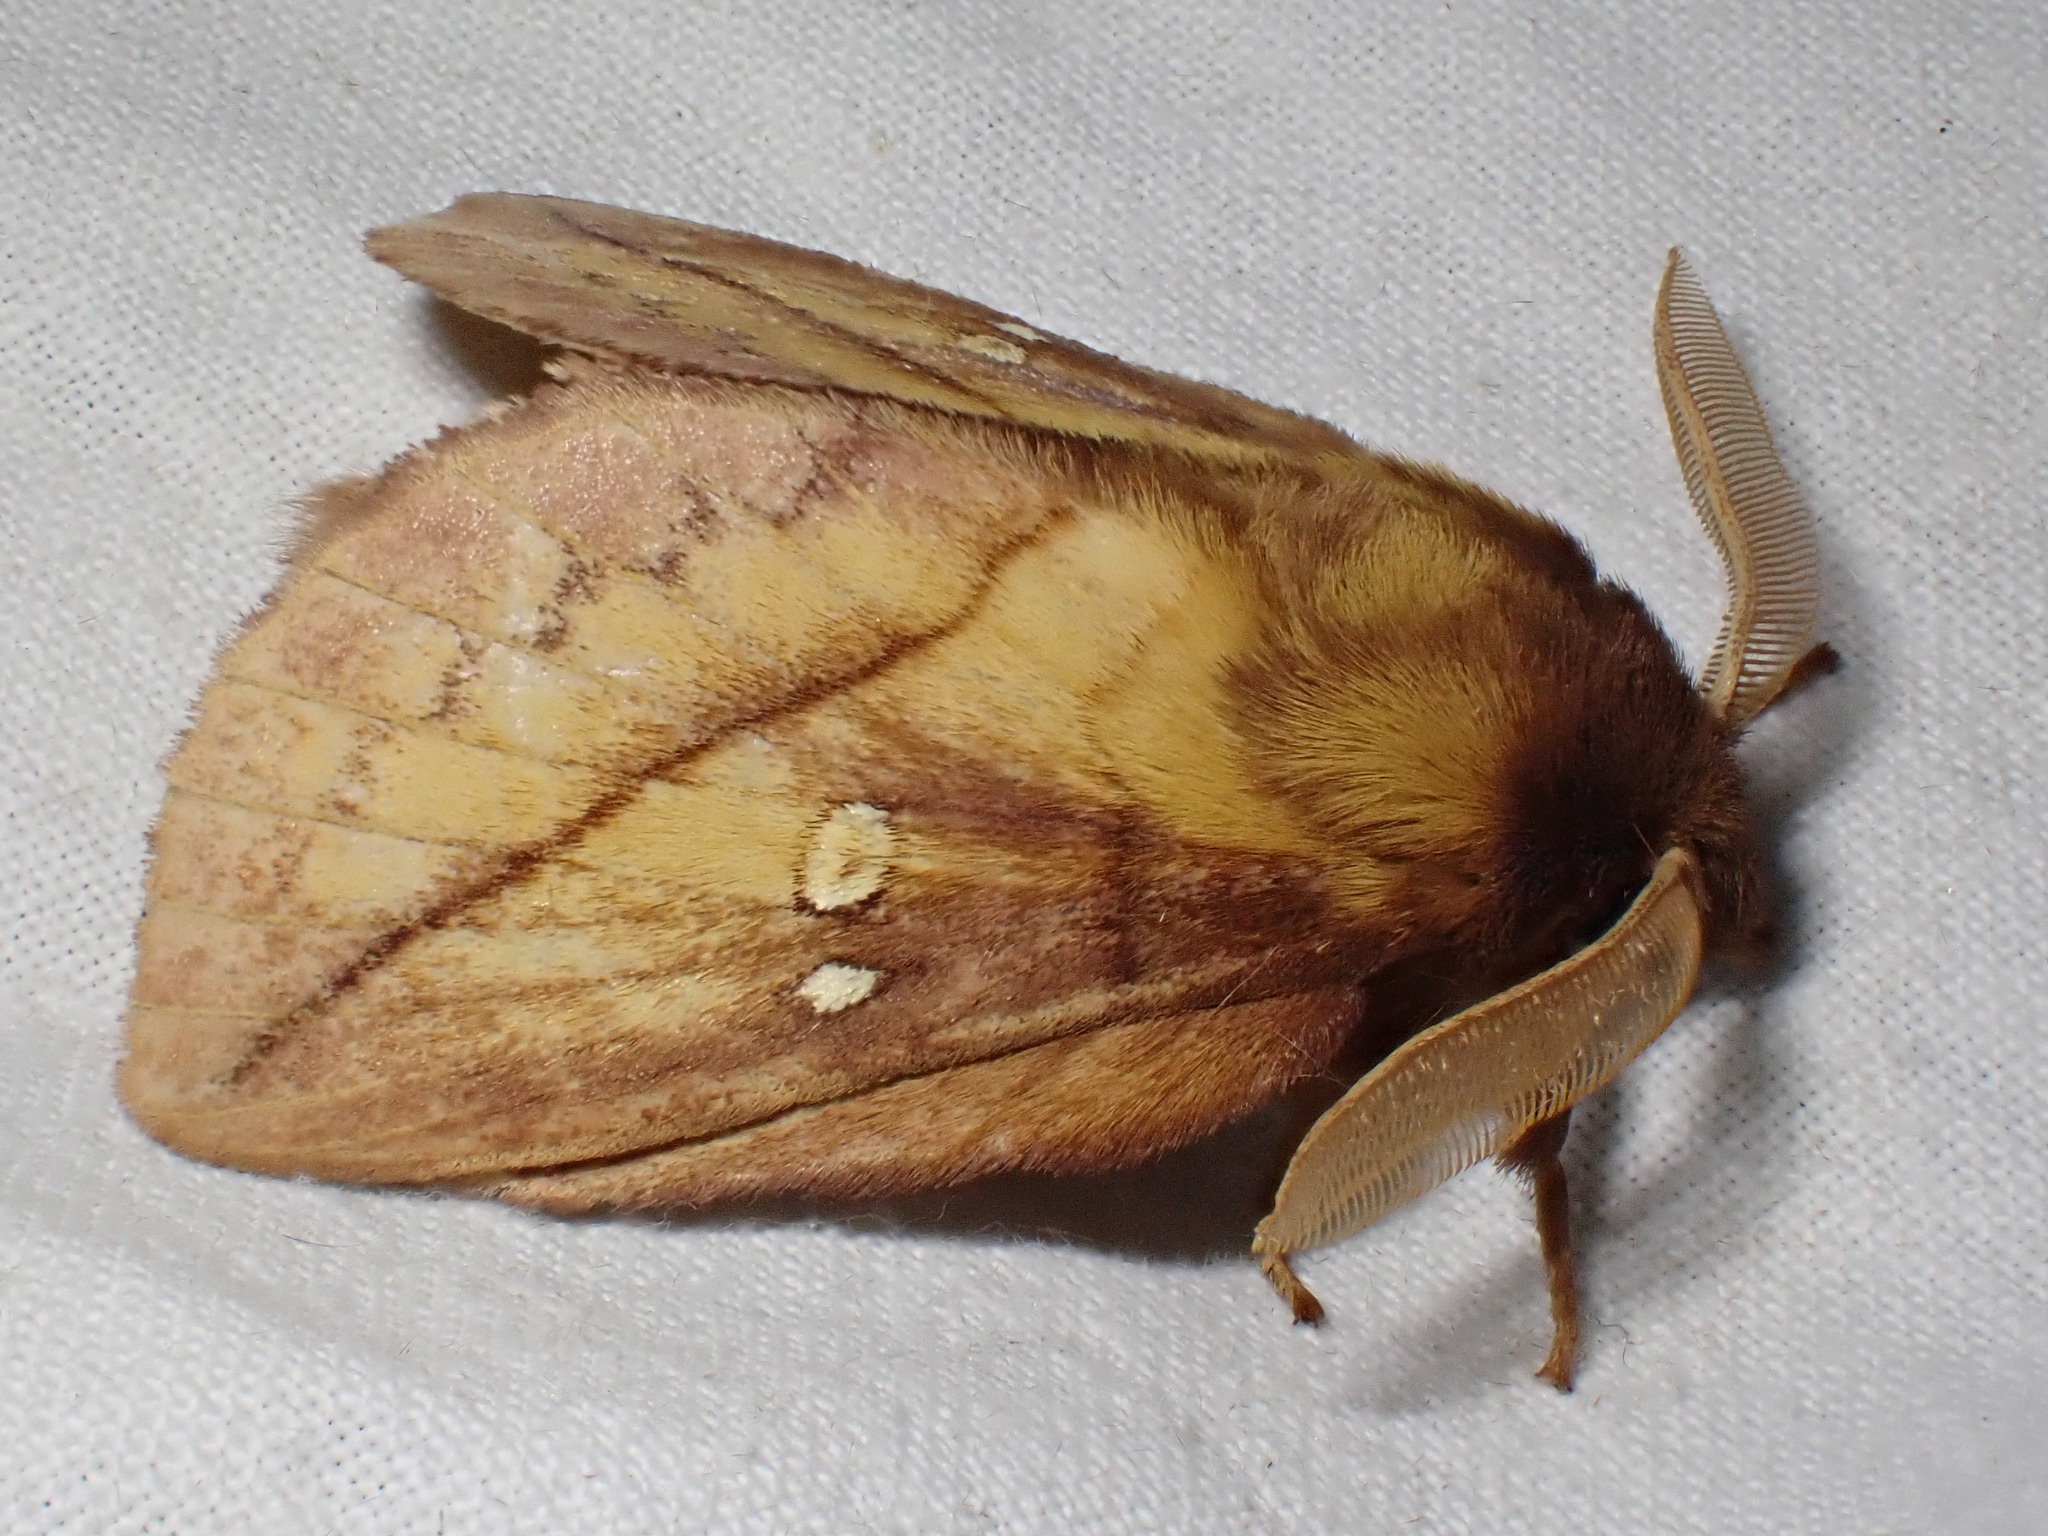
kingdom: Animalia
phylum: Arthropoda
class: Insecta
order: Lepidoptera
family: Lasiocampidae
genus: Euthrix
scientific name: Euthrix potatoria
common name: Drinker
